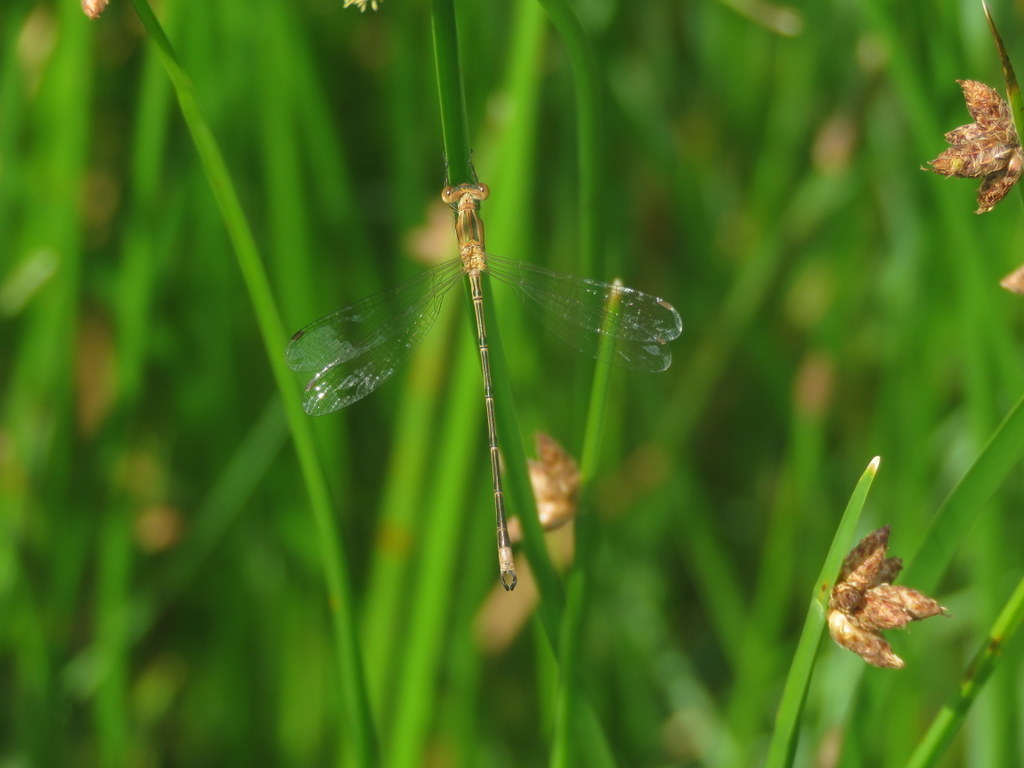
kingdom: Animalia
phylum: Arthropoda
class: Insecta
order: Odonata
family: Lestidae
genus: Lestes
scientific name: Lestes undulatus
